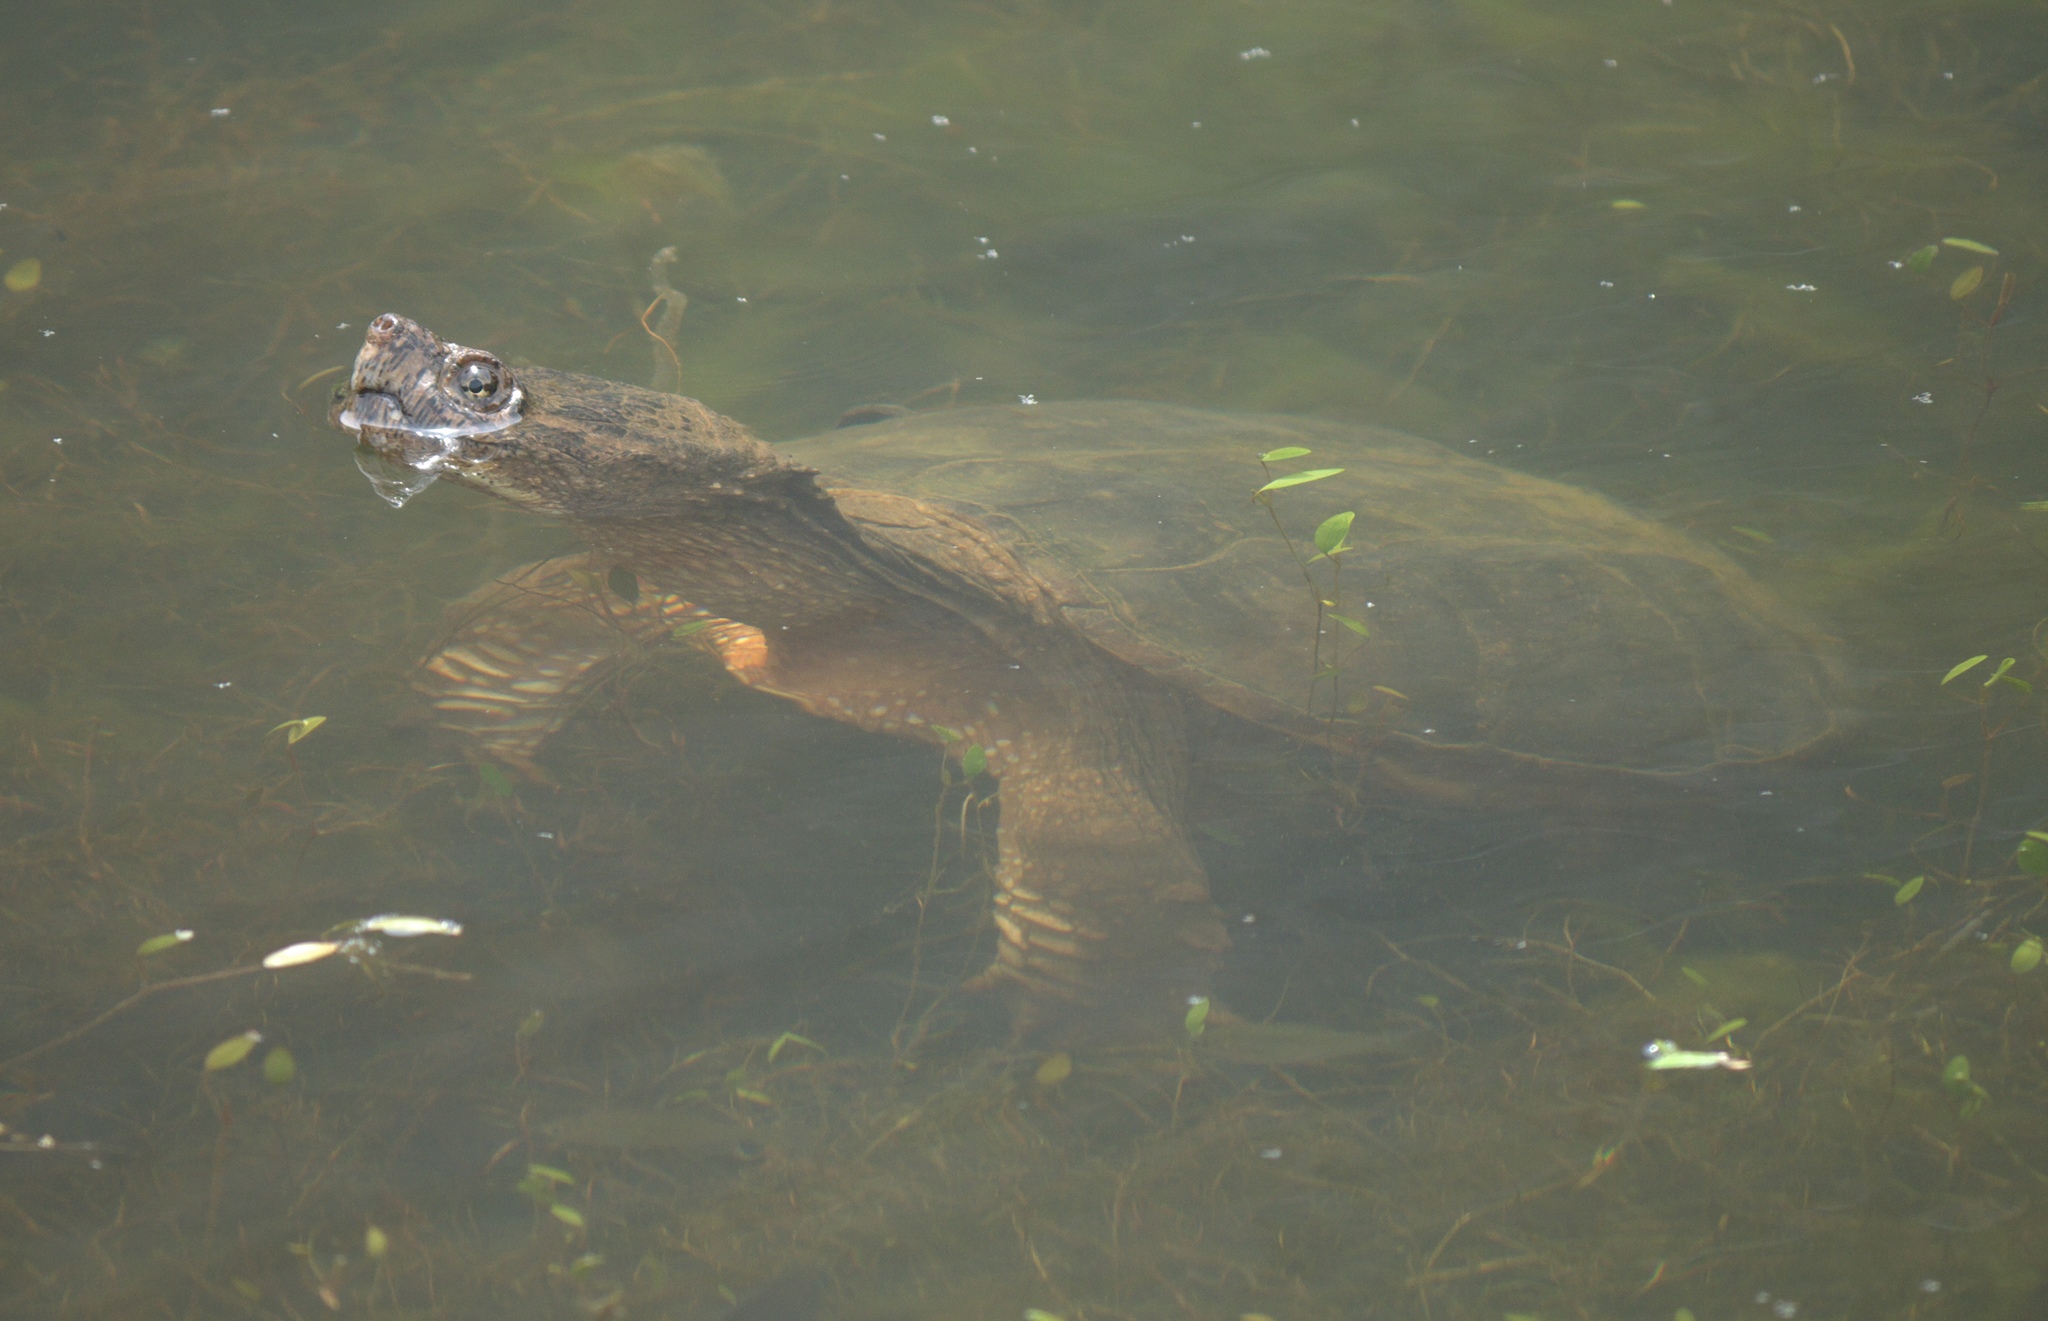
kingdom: Animalia
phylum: Chordata
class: Testudines
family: Chelydridae
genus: Chelydra
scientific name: Chelydra serpentina
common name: Common snapping turtle
